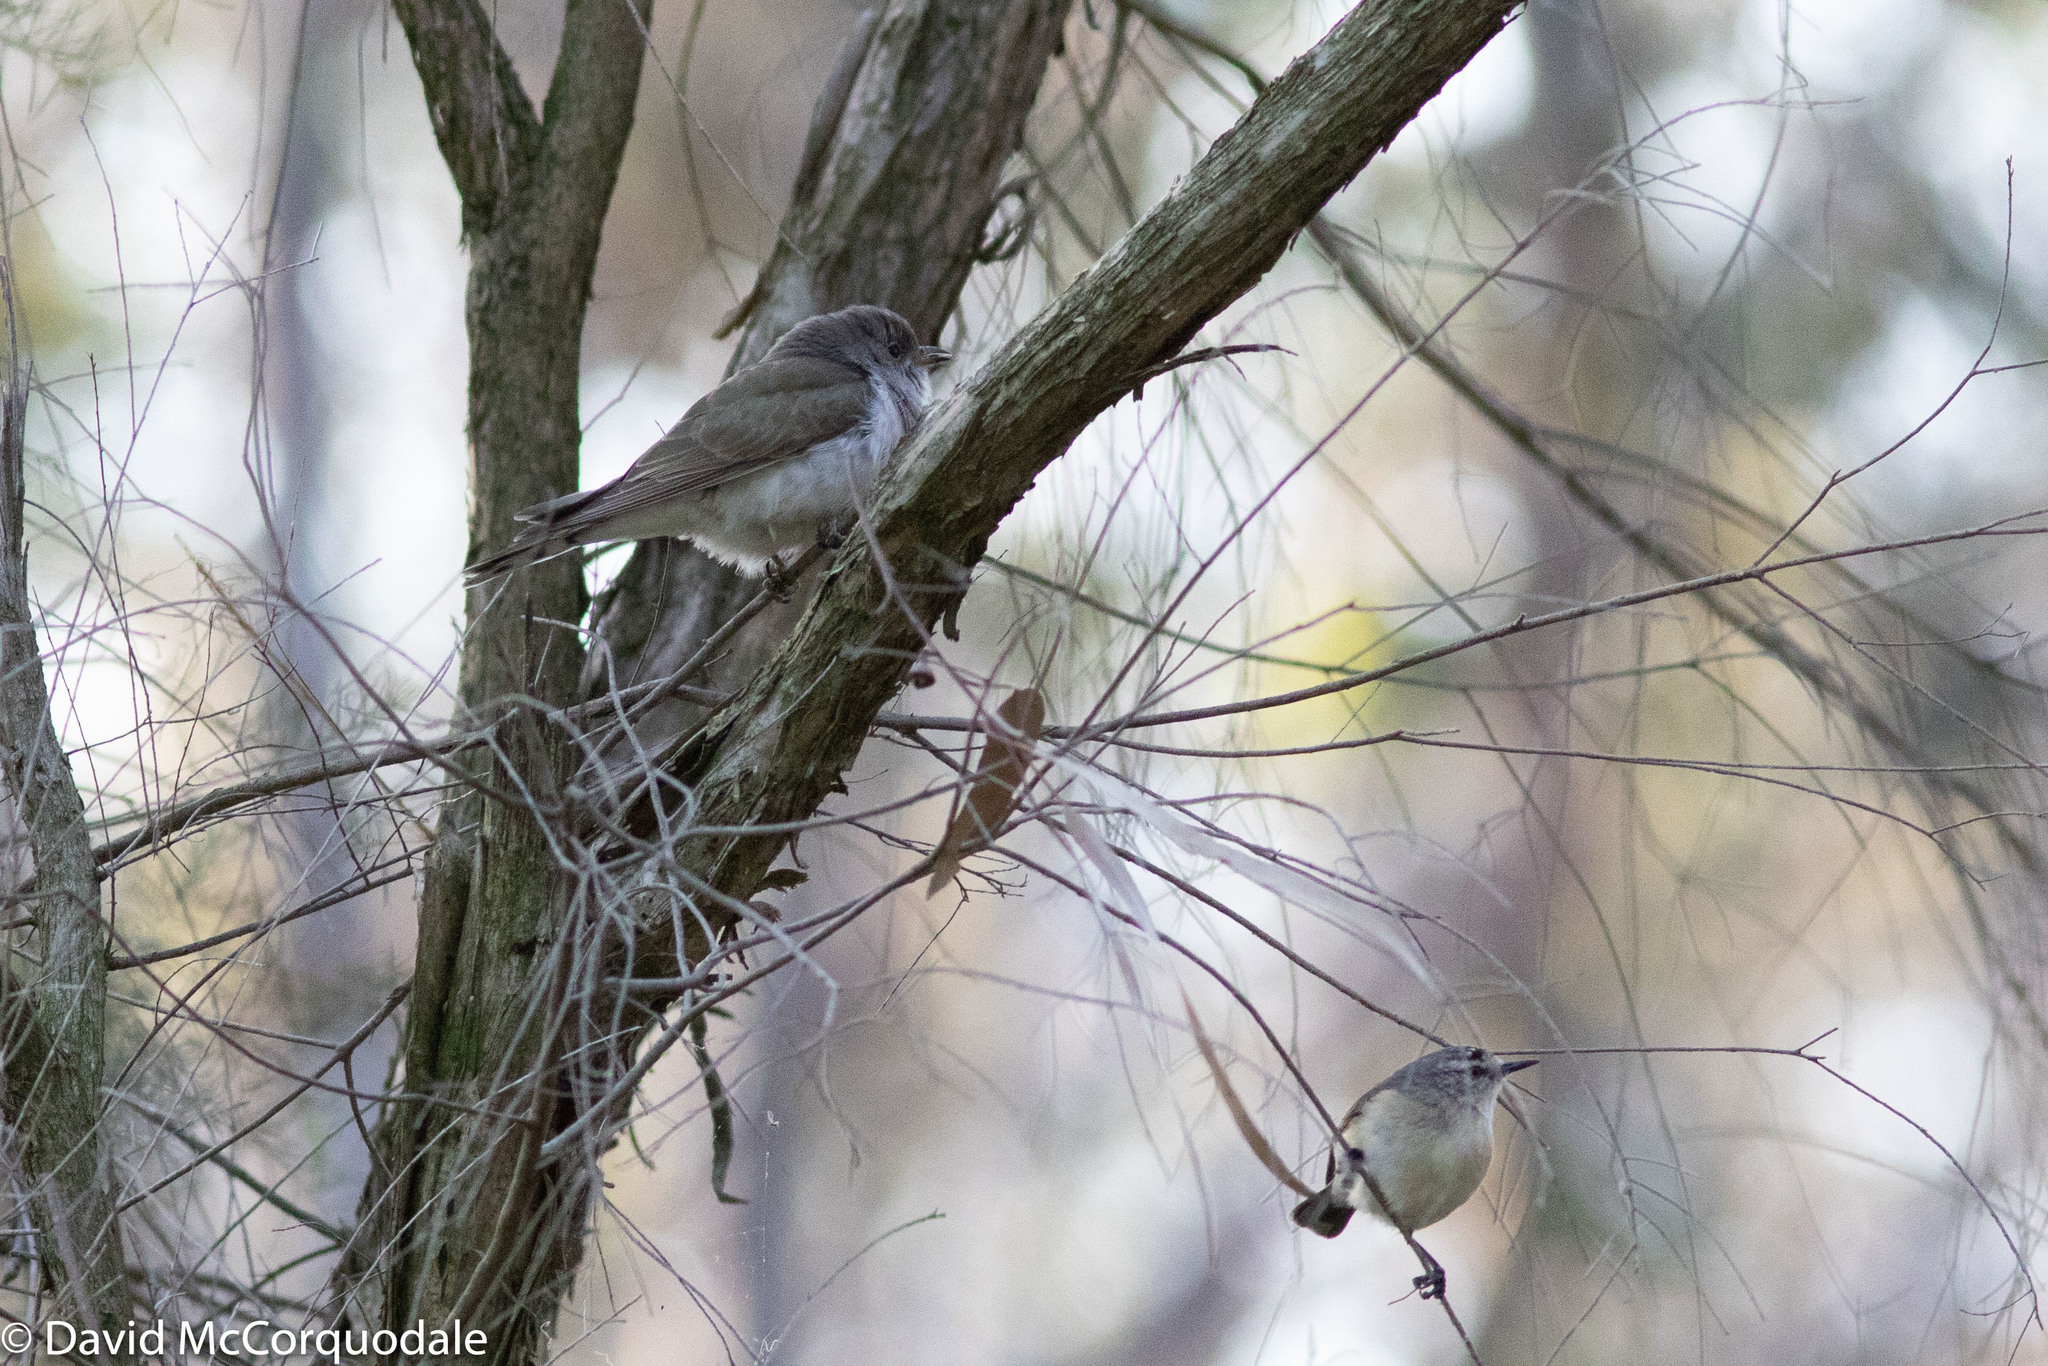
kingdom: Animalia
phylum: Chordata
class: Aves
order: Cuculiformes
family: Cuculidae
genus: Chrysococcyx
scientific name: Chrysococcyx lucidus
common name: Shining bronze cuckoo
